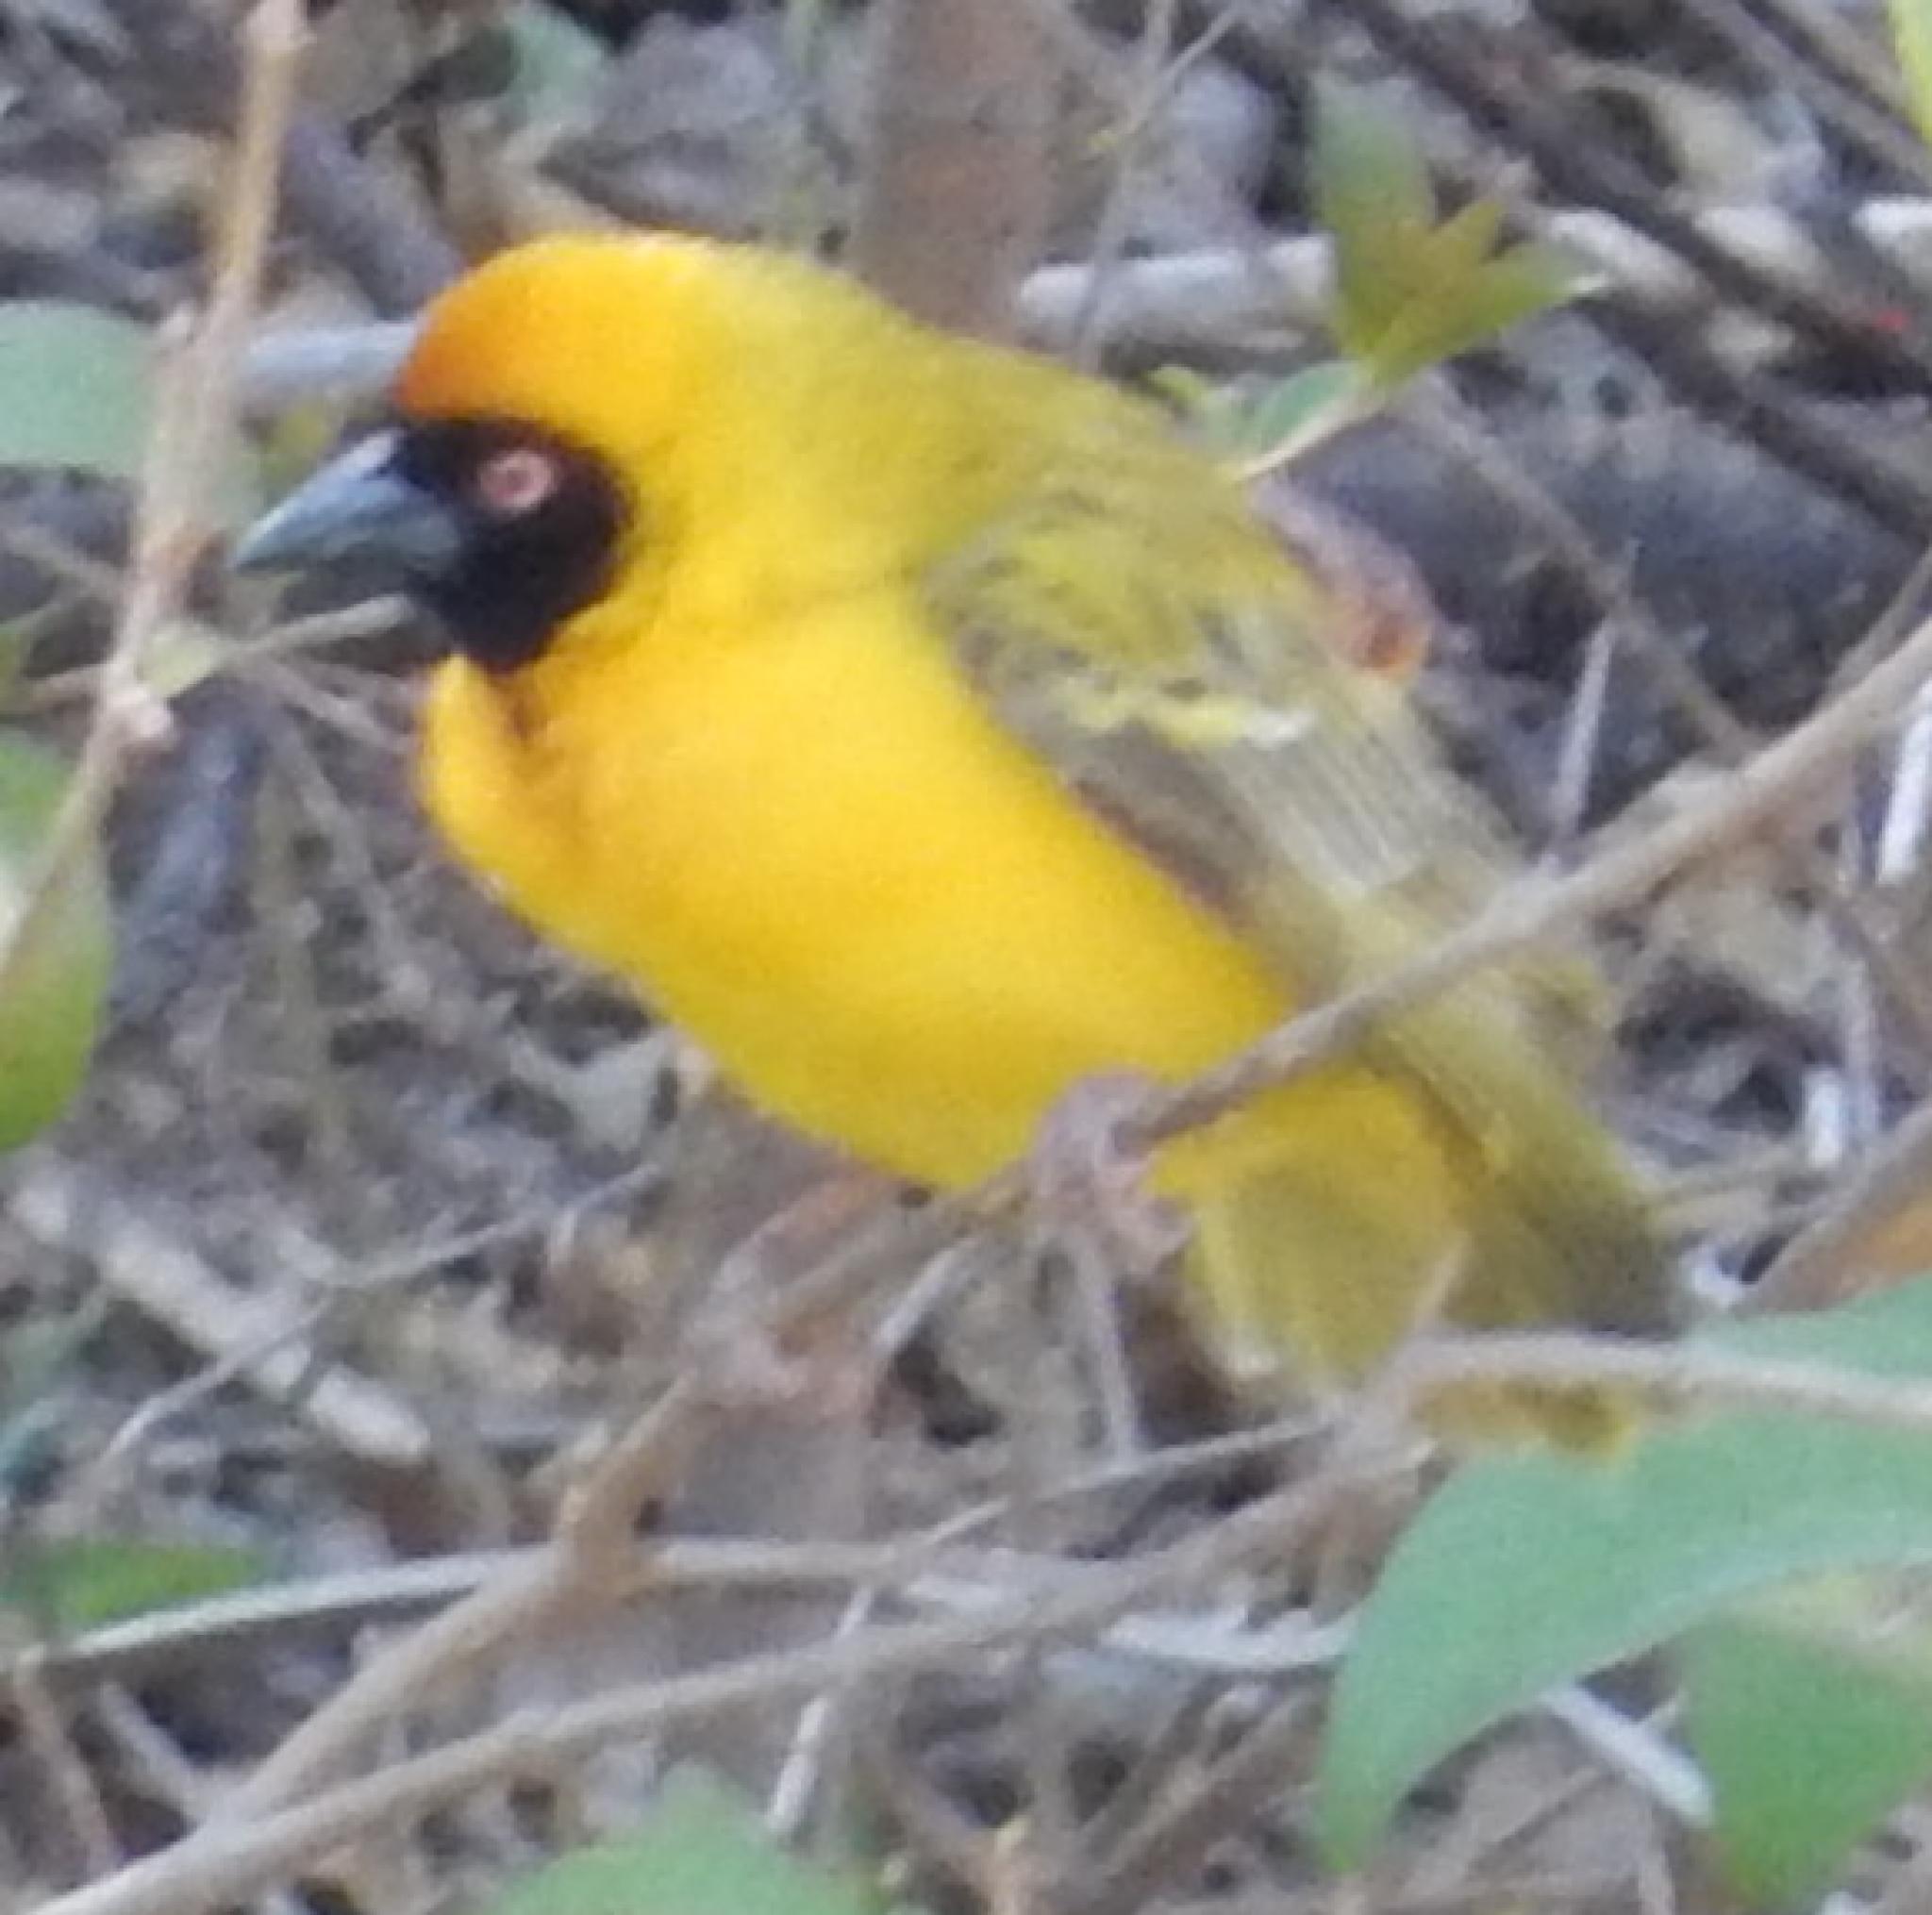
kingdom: Animalia
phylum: Chordata
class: Aves
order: Passeriformes
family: Ploceidae
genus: Ploceus
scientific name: Ploceus velatus
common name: Southern masked weaver
